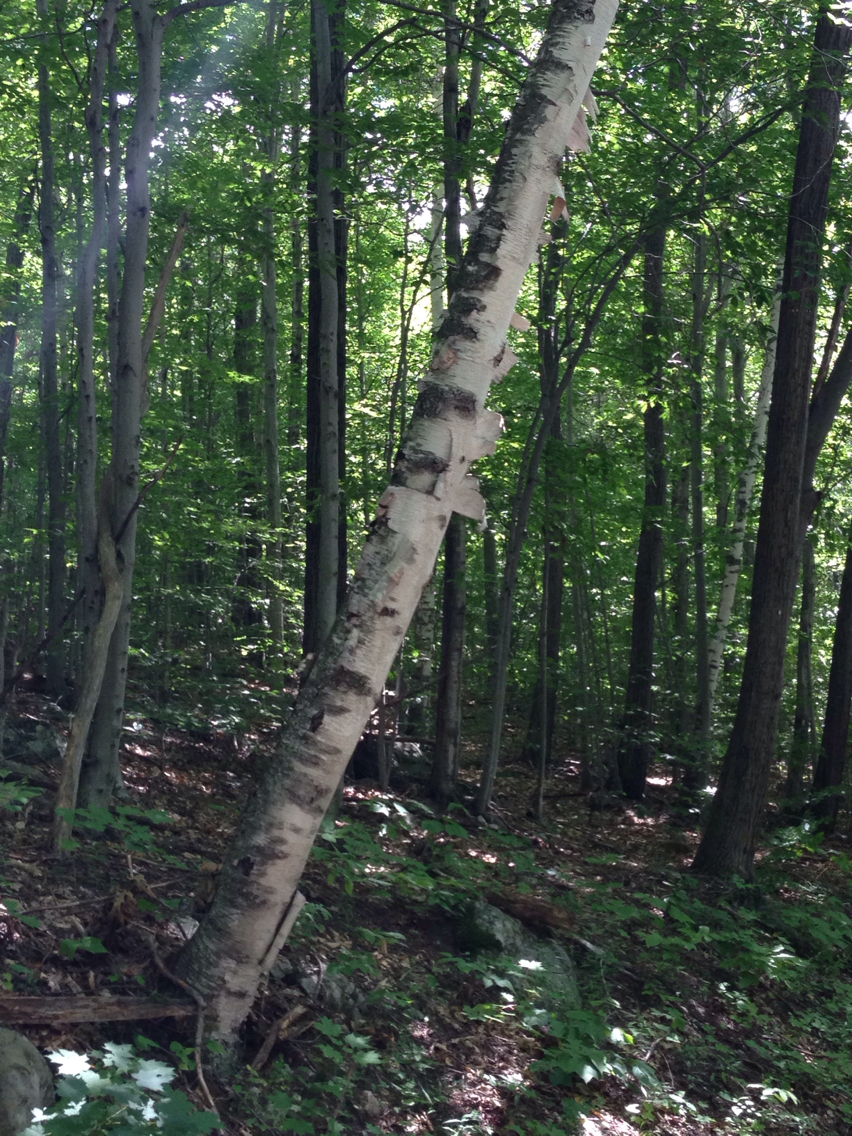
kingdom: Plantae
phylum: Tracheophyta
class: Magnoliopsida
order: Fagales
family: Betulaceae
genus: Betula
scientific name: Betula papyrifera
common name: Paper birch
